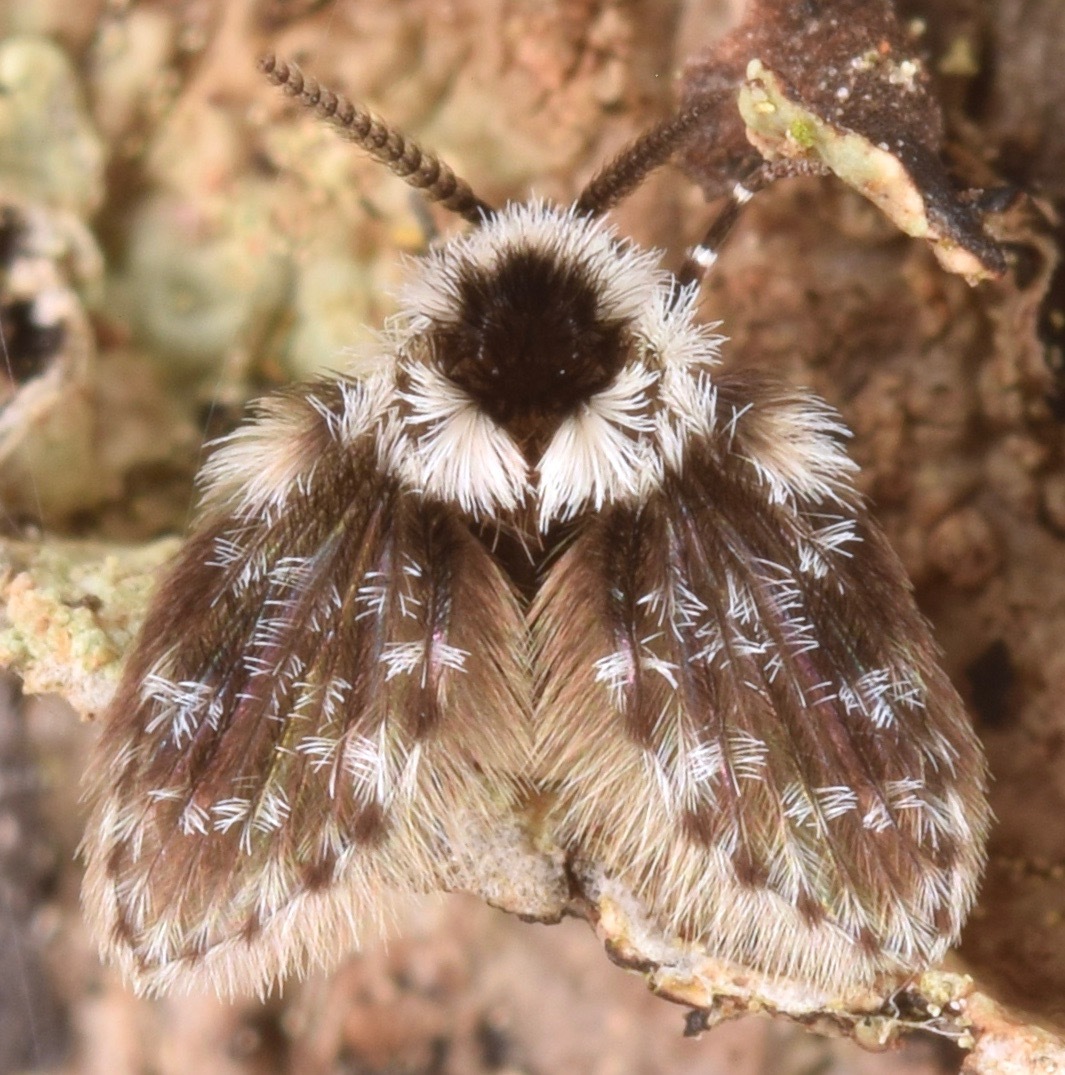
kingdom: Animalia
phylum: Arthropoda
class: Insecta
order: Diptera
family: Psychodidae
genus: Lepiseodina
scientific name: Lepiseodina
